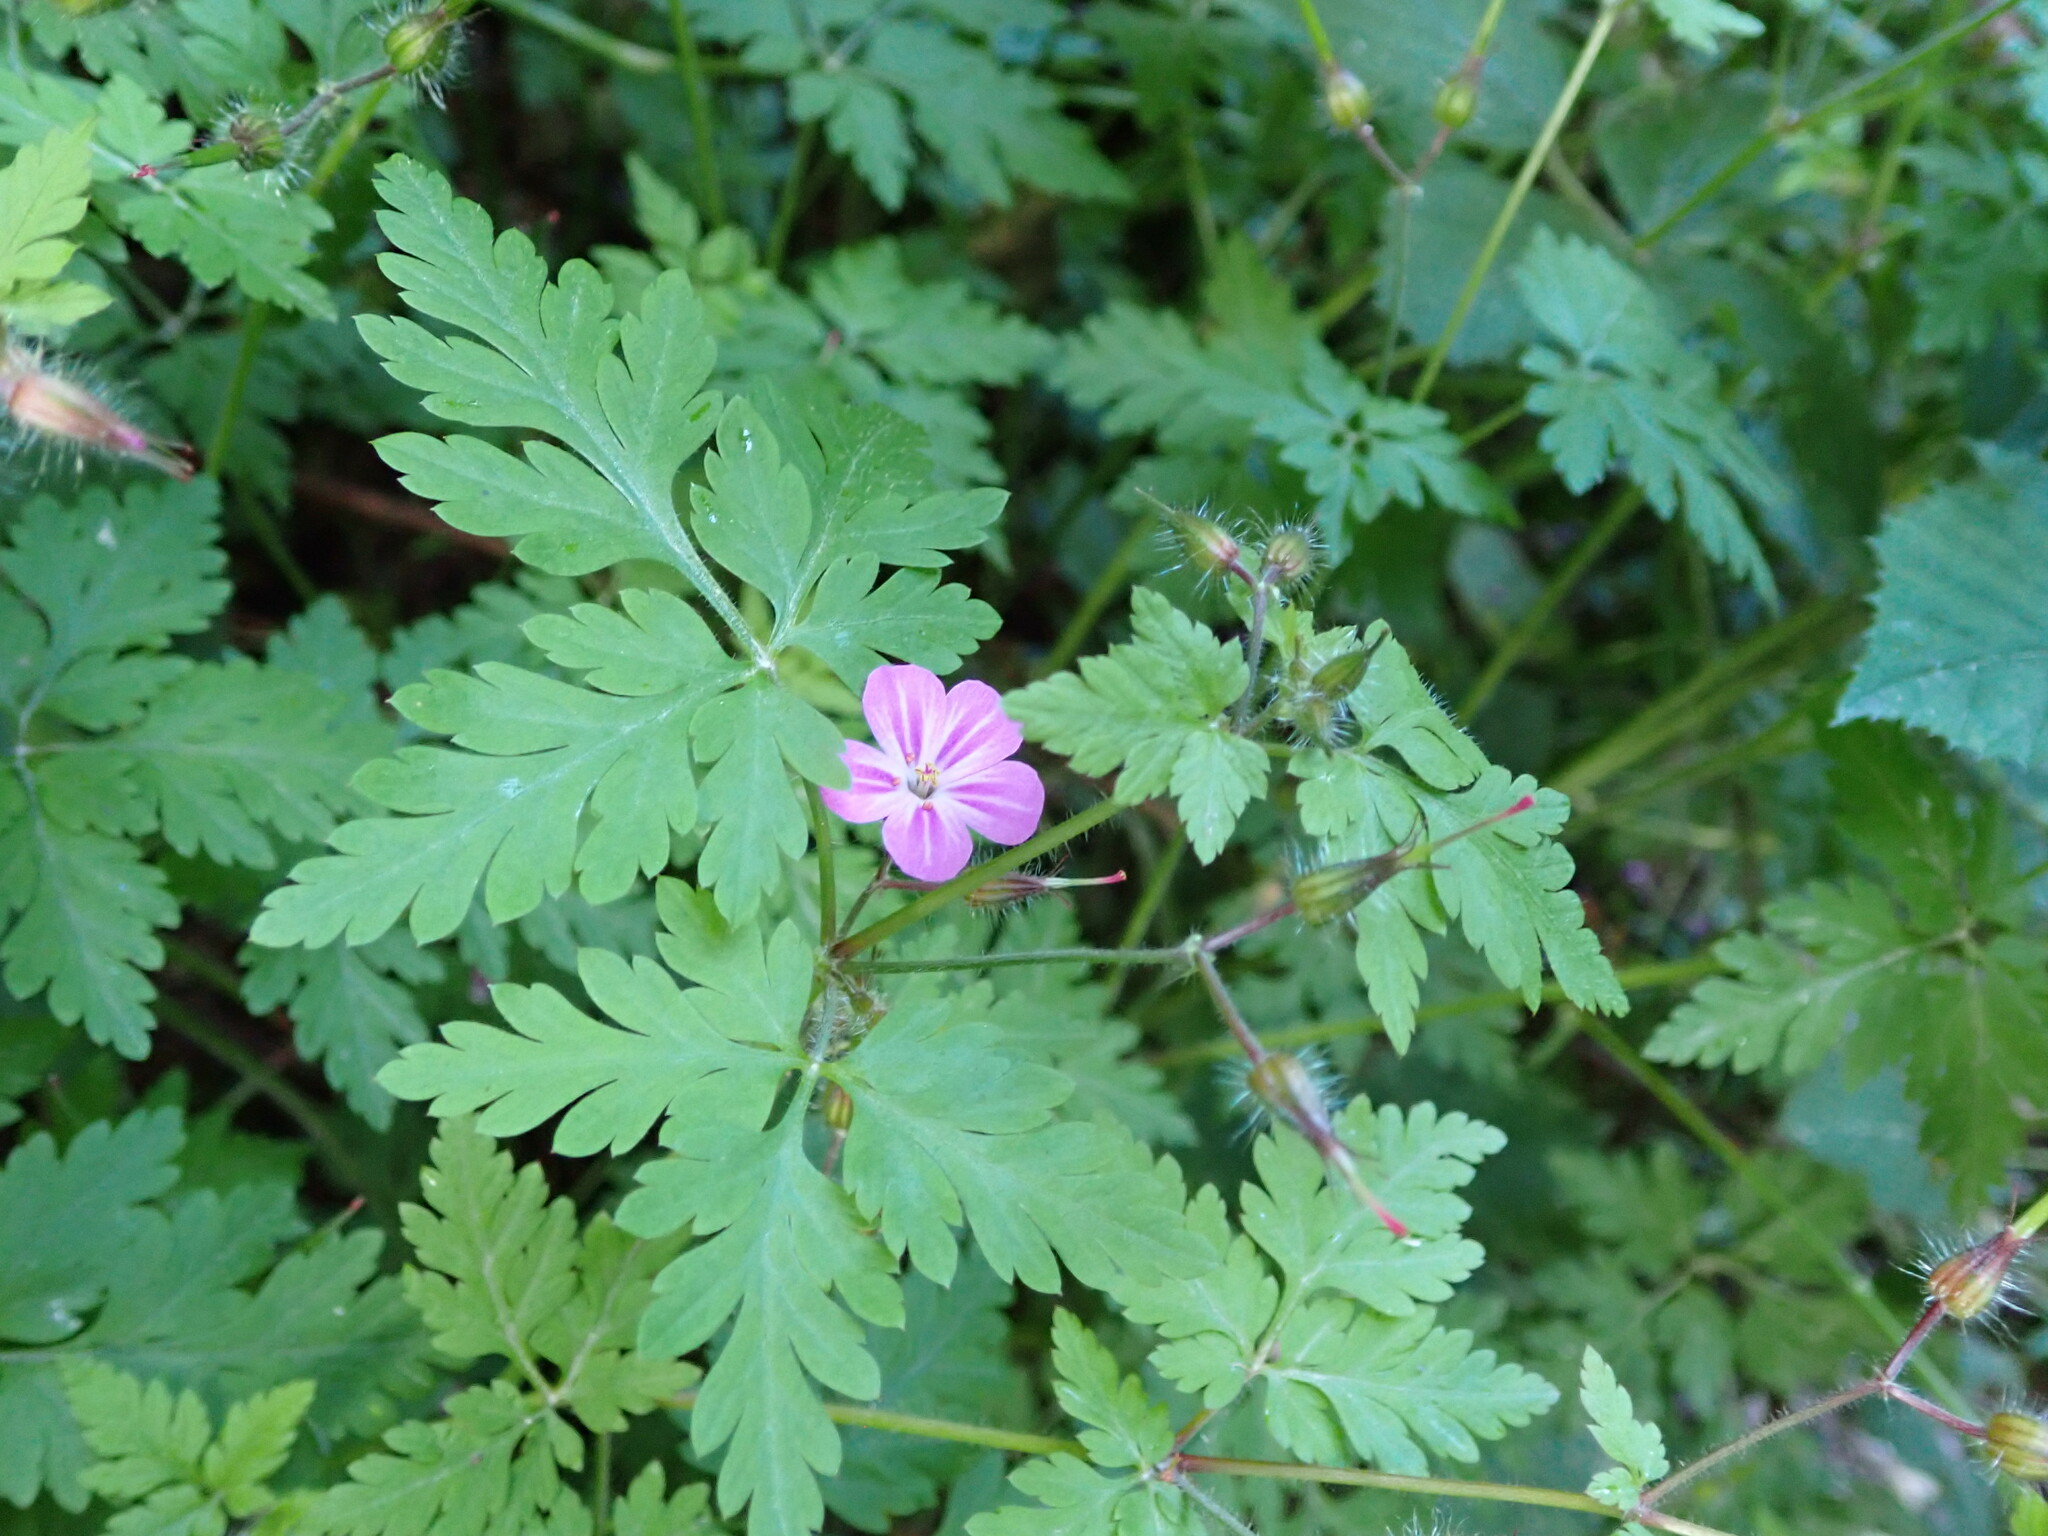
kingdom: Plantae
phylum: Tracheophyta
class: Magnoliopsida
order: Geraniales
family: Geraniaceae
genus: Geranium
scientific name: Geranium robertianum
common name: Herb-robert
